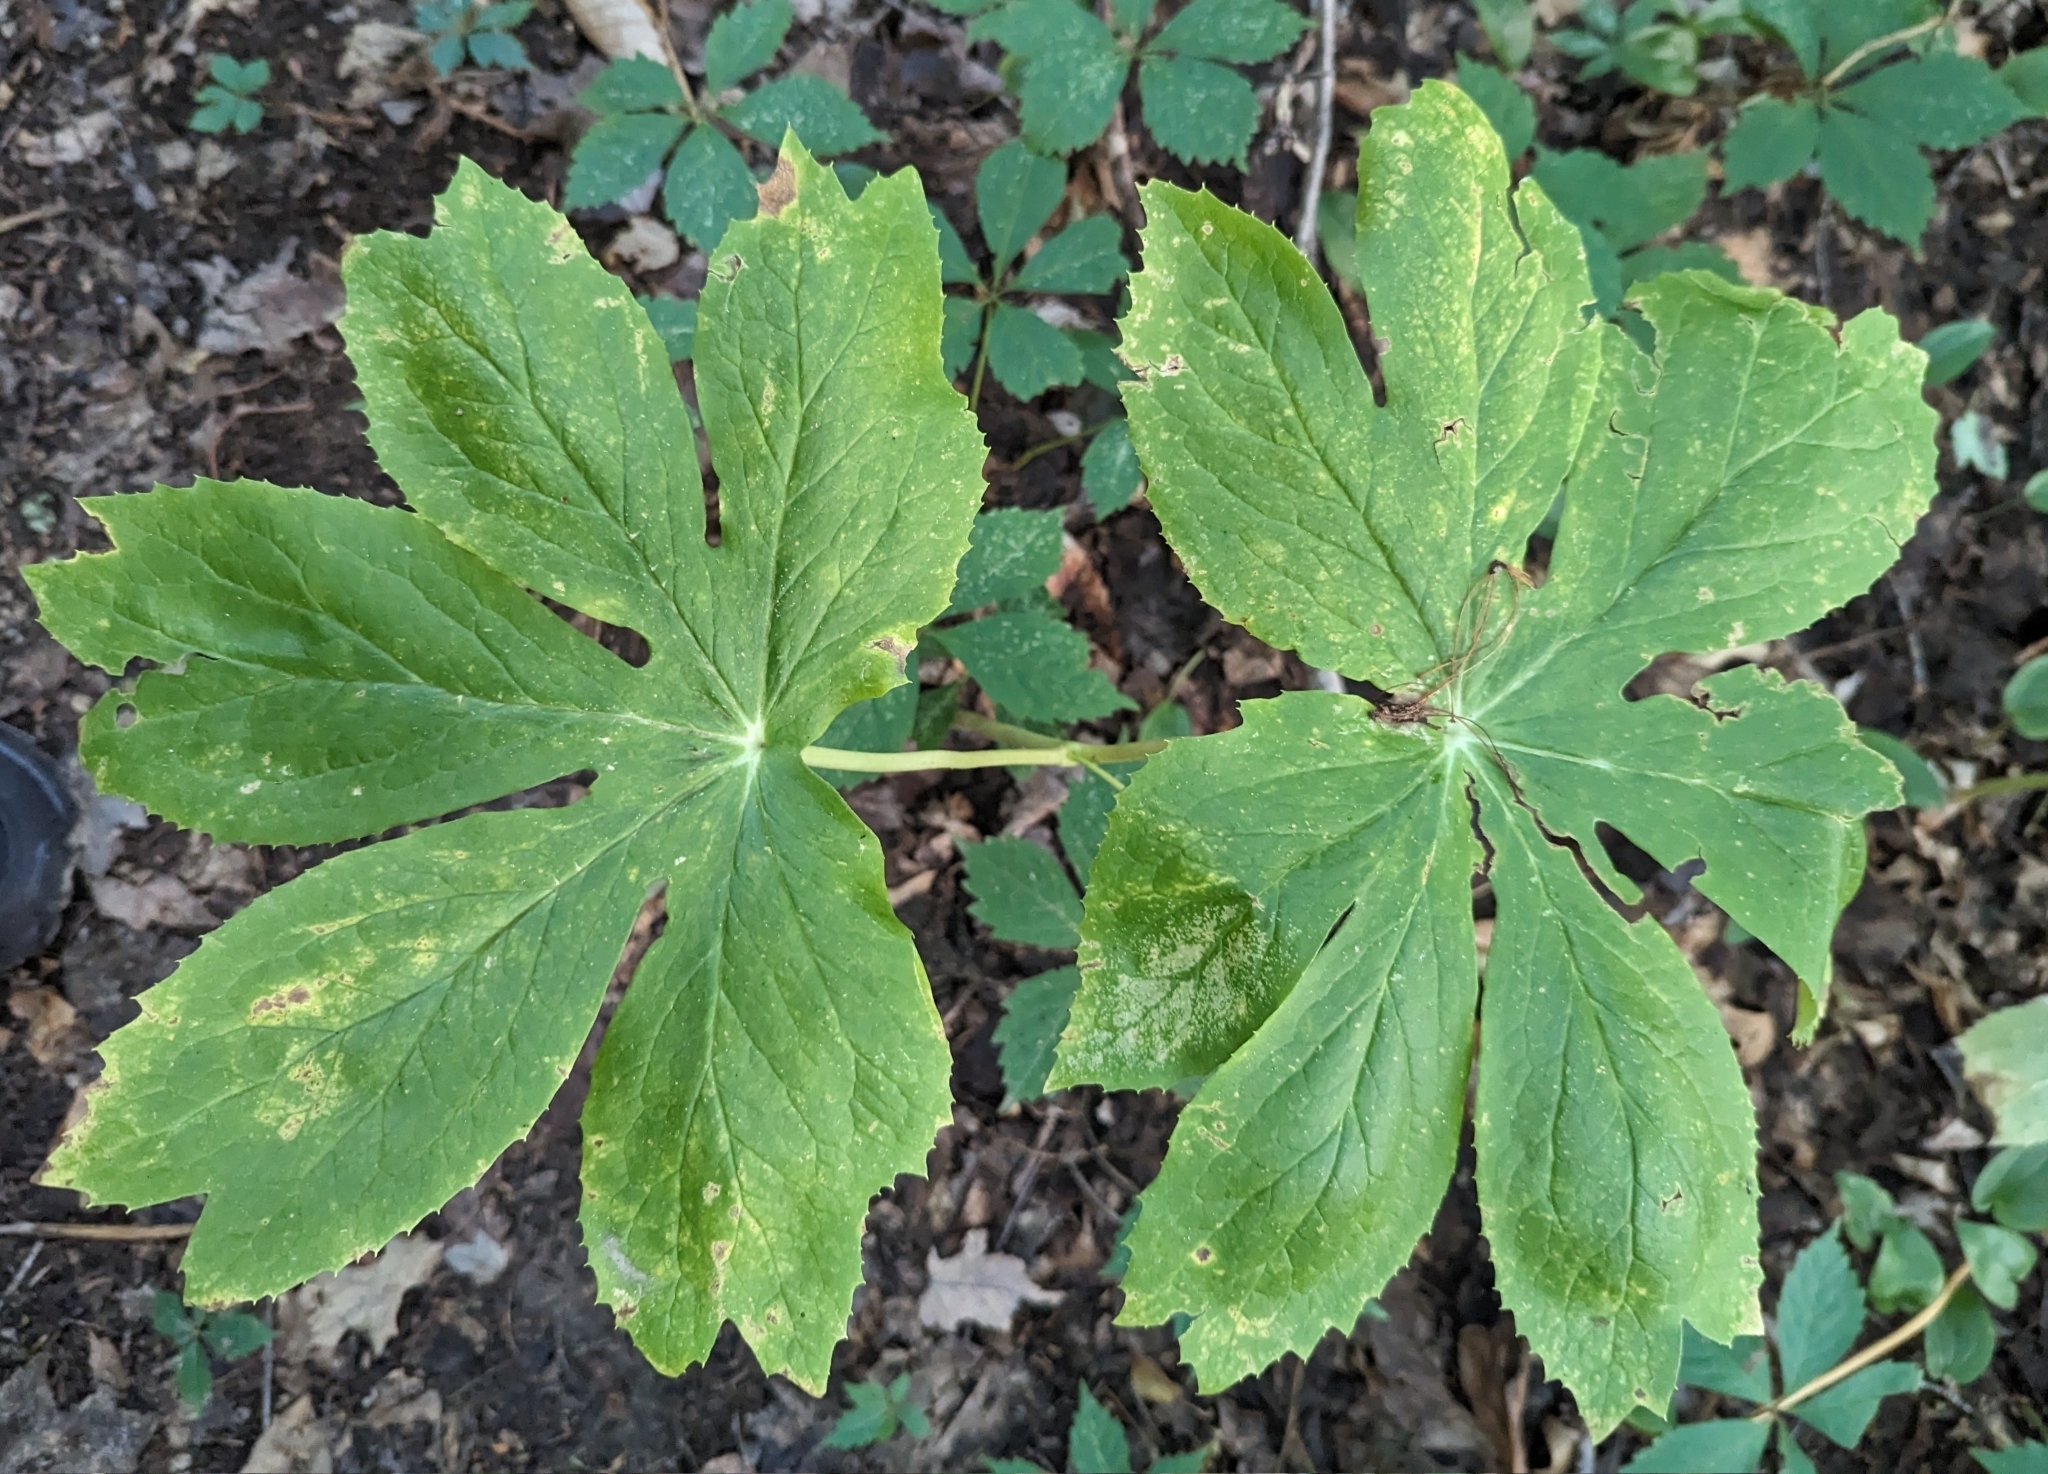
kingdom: Plantae
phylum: Tracheophyta
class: Magnoliopsida
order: Ranunculales
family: Berberidaceae
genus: Podophyllum
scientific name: Podophyllum peltatum
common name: Wild mandrake
